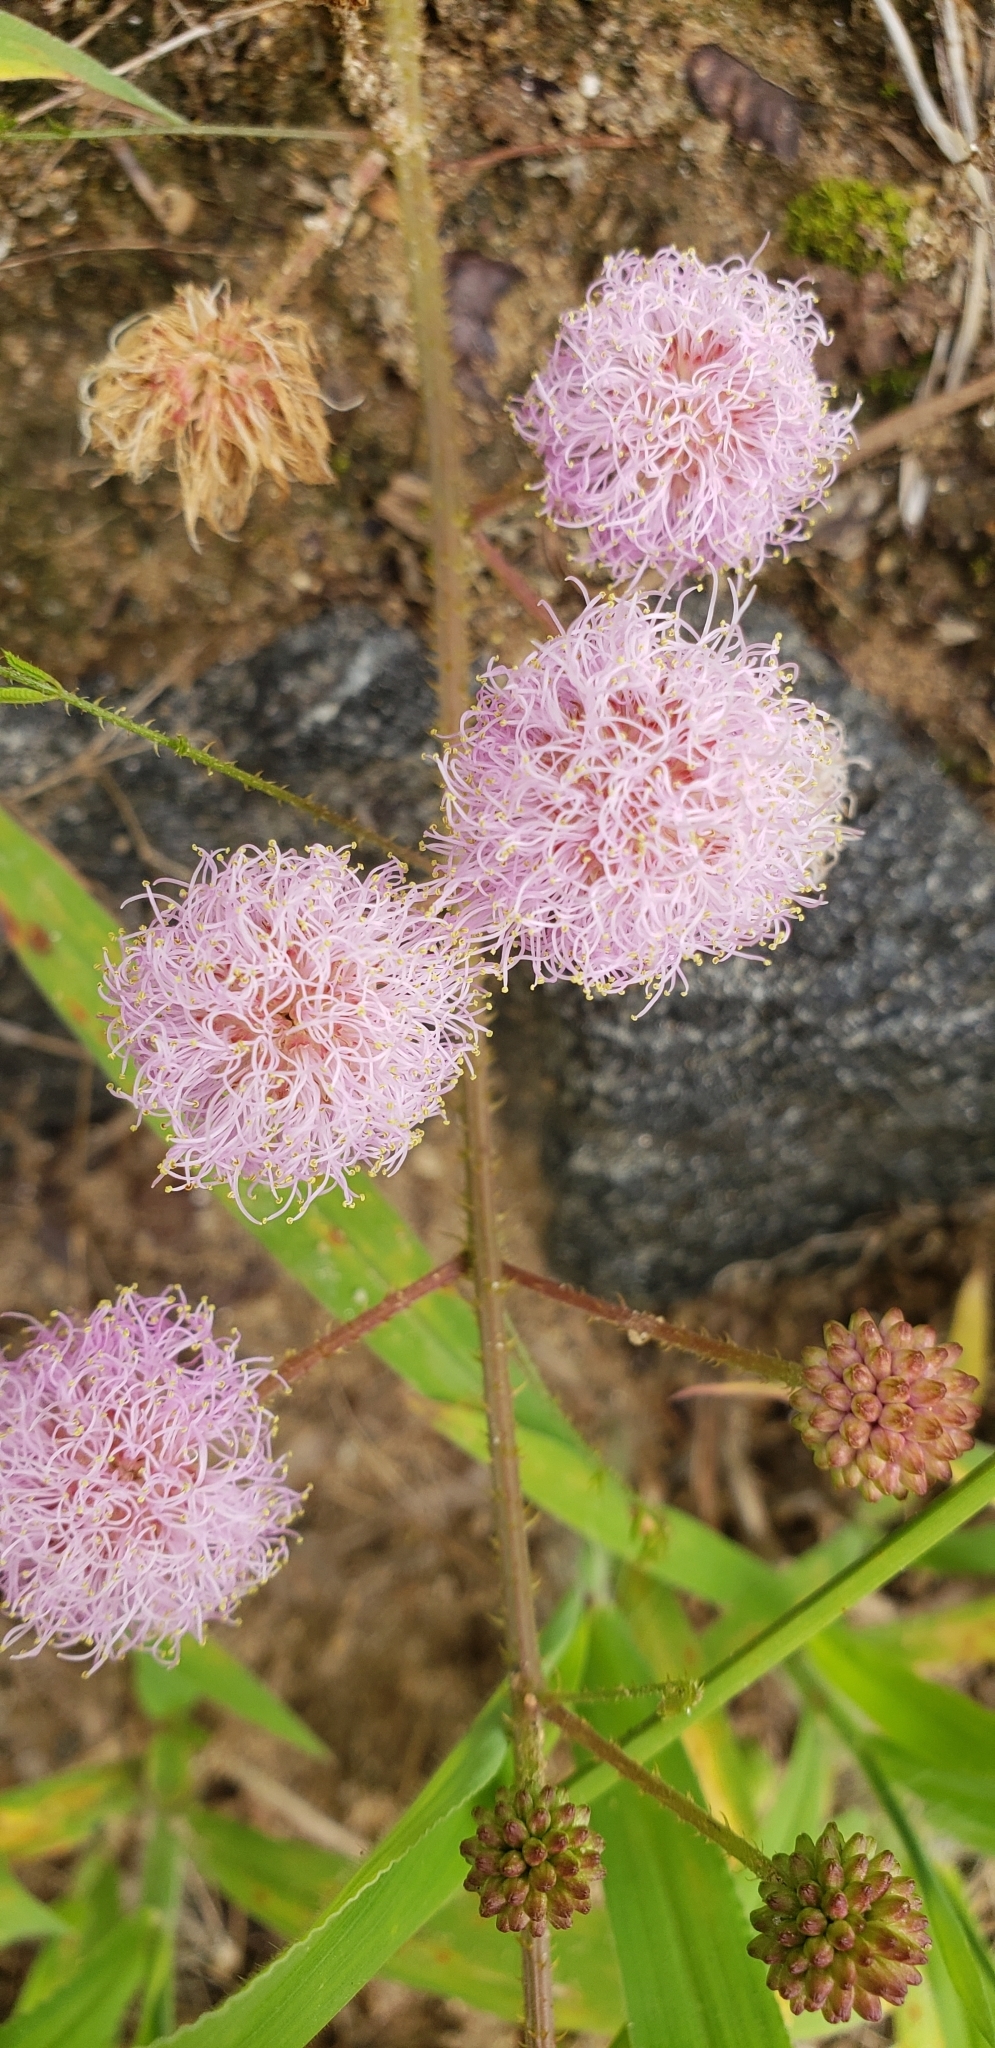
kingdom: Plantae
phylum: Tracheophyta
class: Magnoliopsida
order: Fabales
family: Fabaceae
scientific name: Fabaceae
